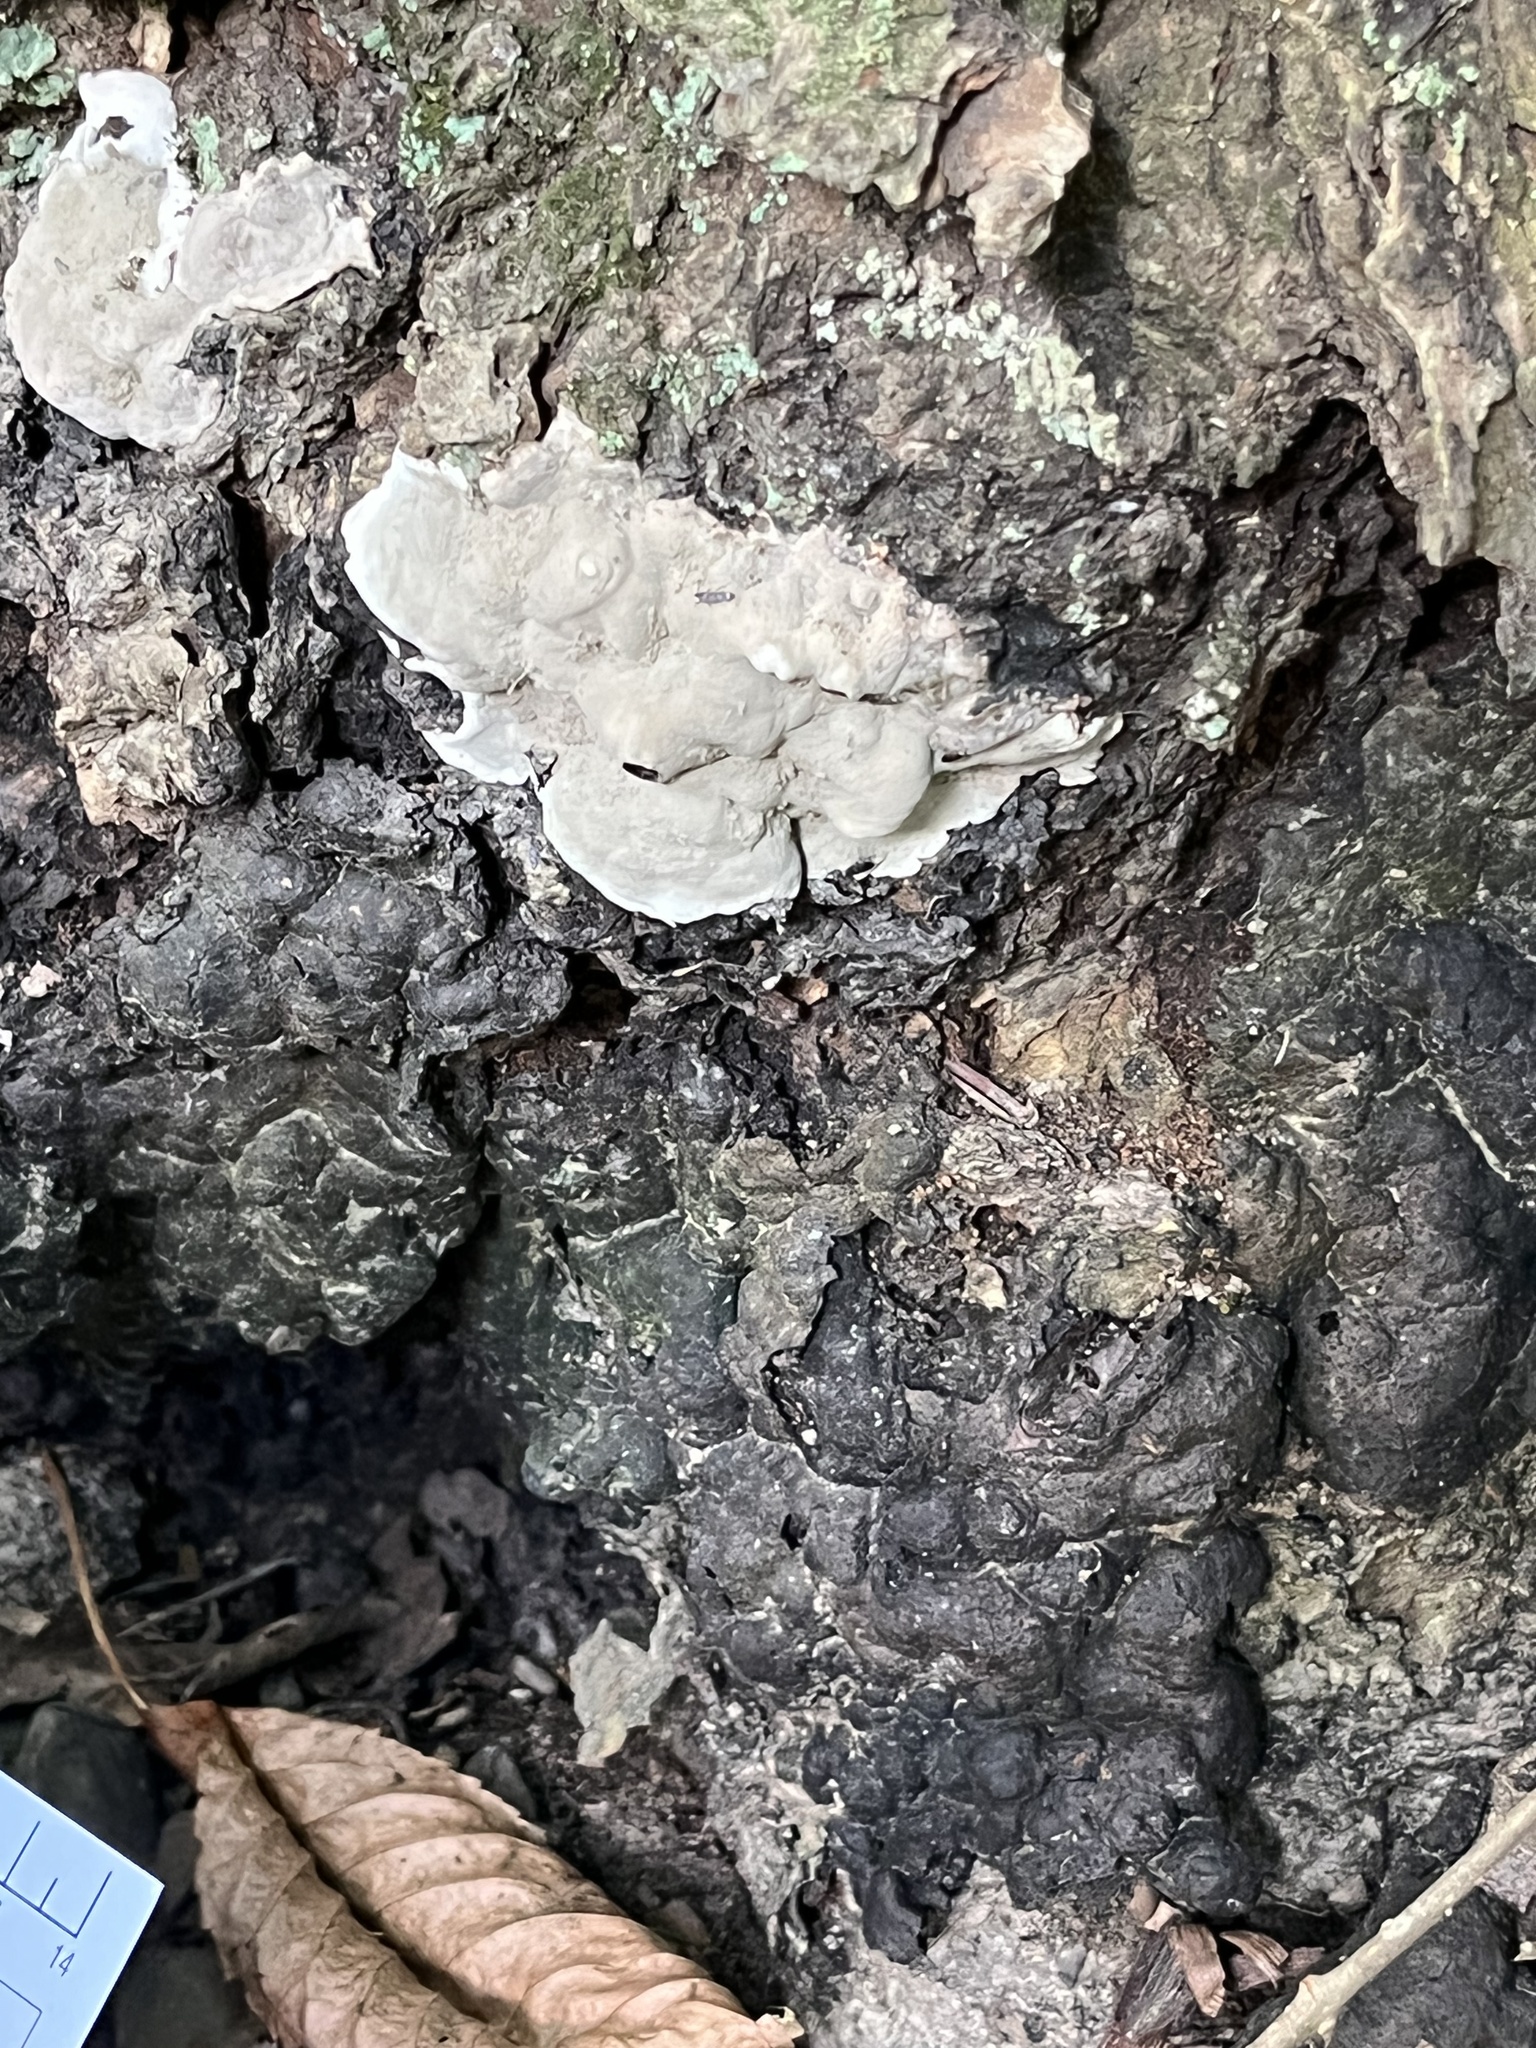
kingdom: Fungi
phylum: Ascomycota
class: Sordariomycetes
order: Xylariales
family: Xylariaceae
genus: Kretzschmaria
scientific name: Kretzschmaria deusta
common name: Brittle cinder
